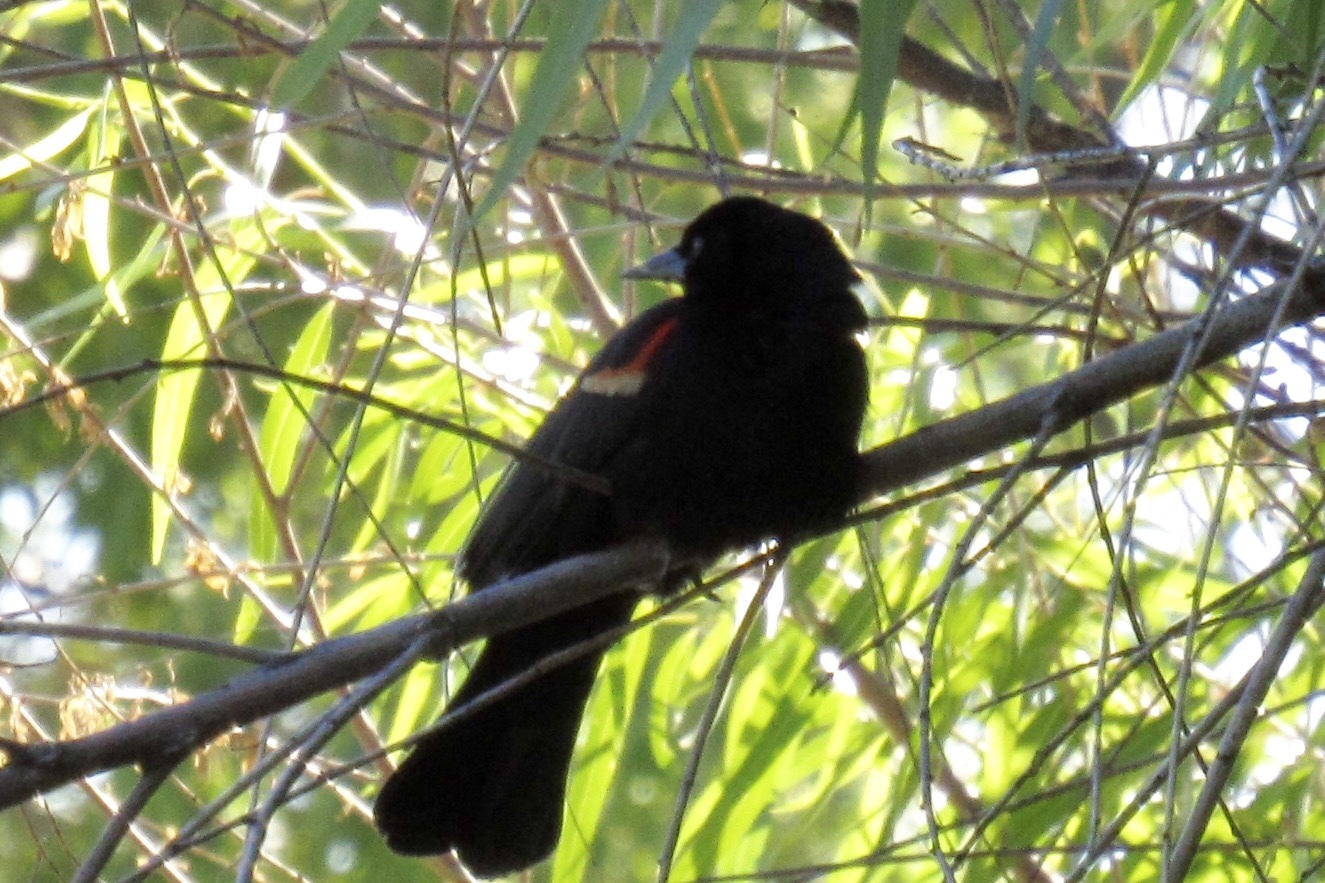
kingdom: Animalia
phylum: Chordata
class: Aves
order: Passeriformes
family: Icteridae
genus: Agelaius
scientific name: Agelaius phoeniceus
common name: Red-winged blackbird
